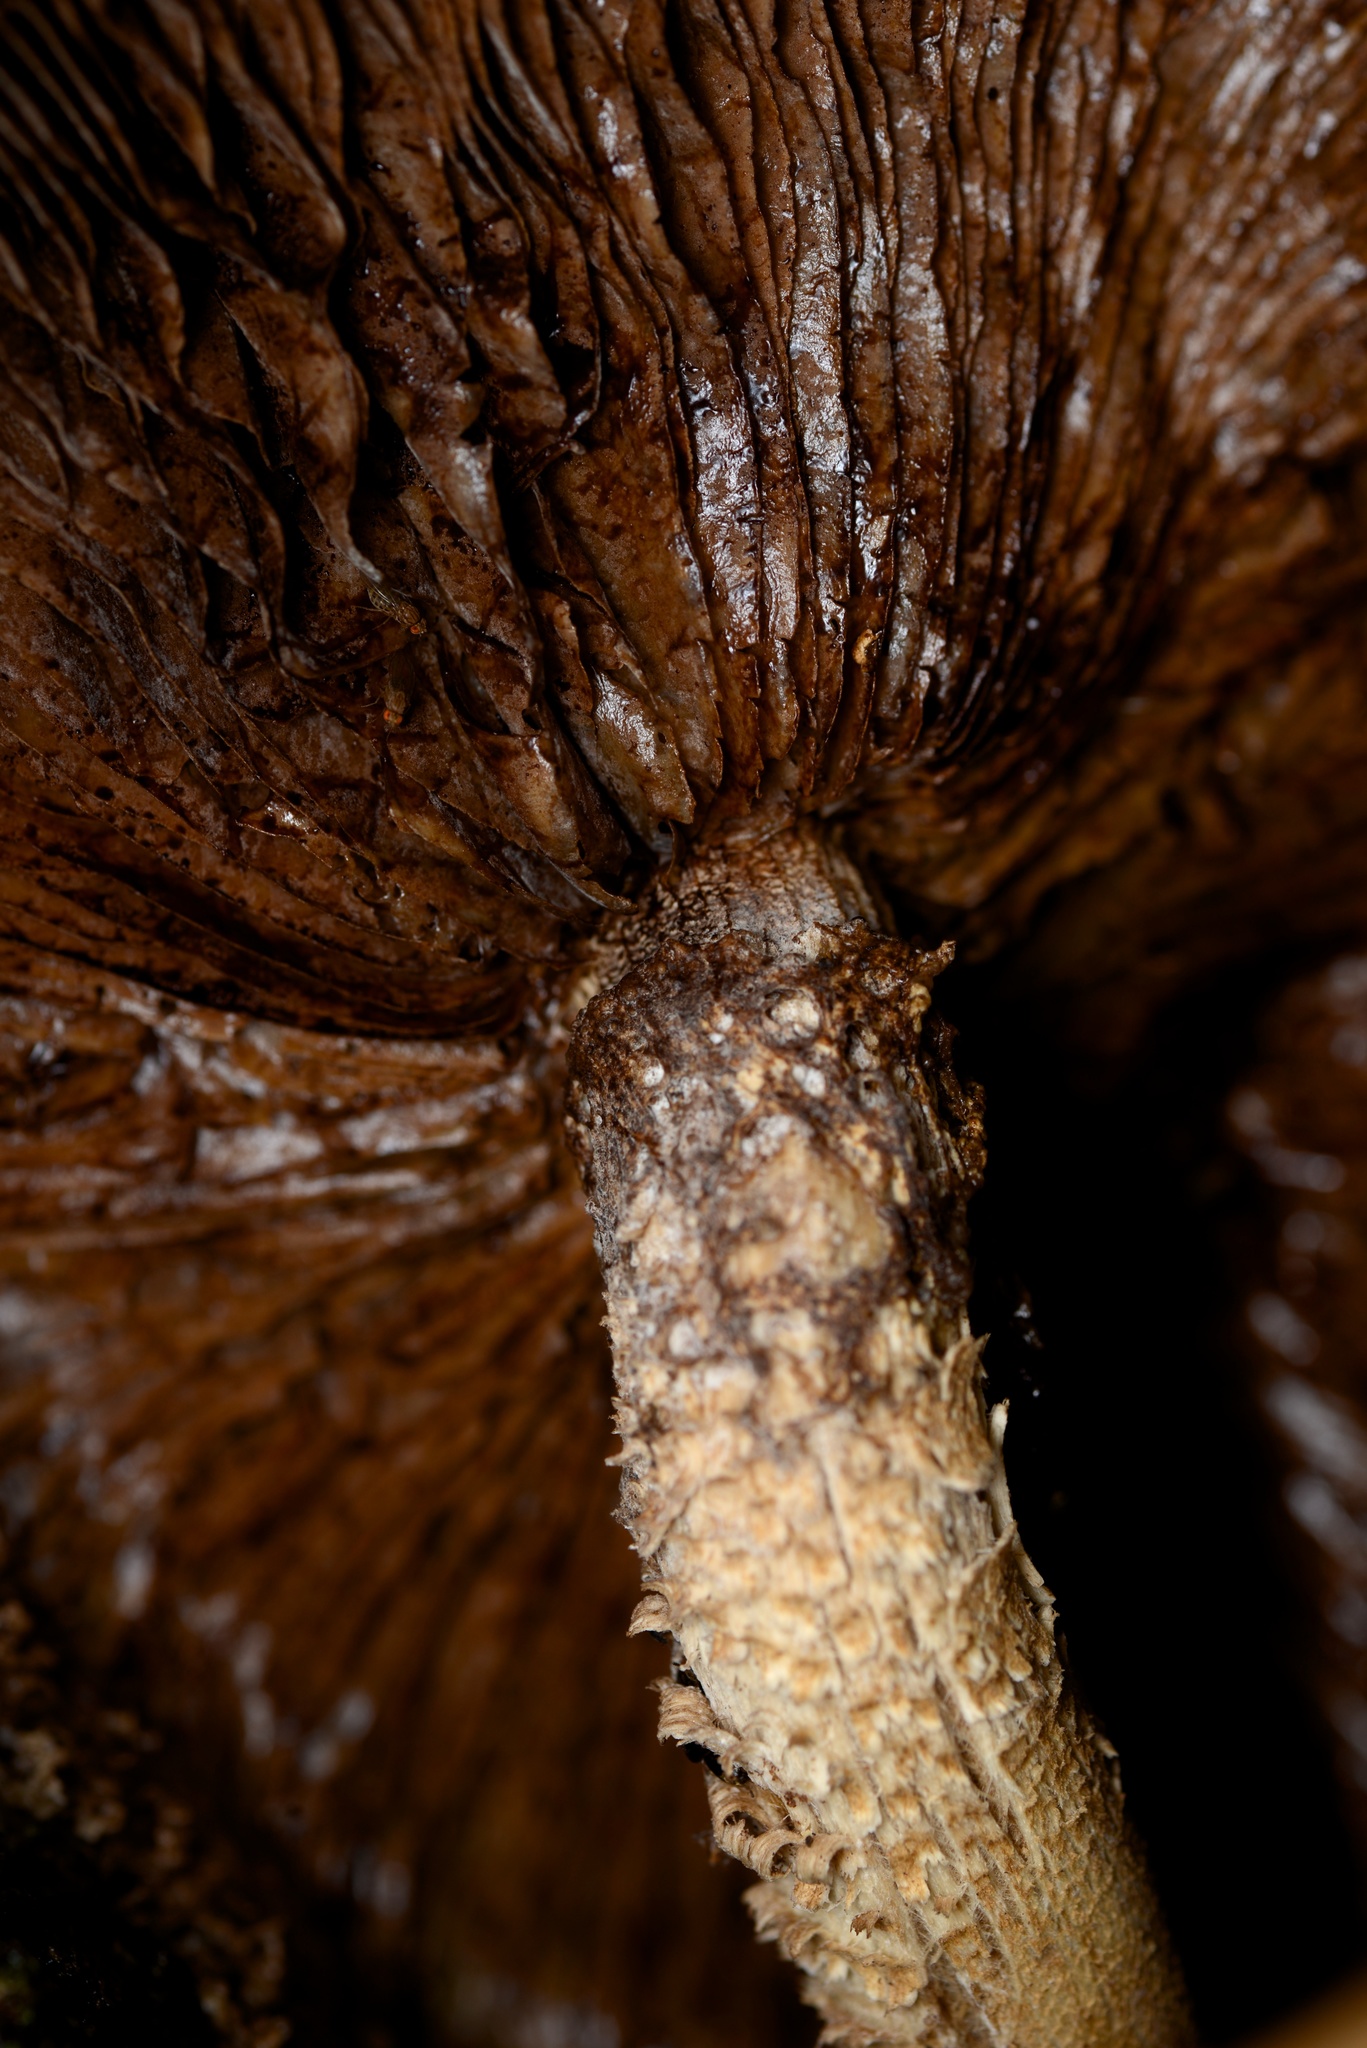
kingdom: Fungi
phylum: Basidiomycota
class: Agaricomycetes
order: Agaricales
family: Tubariaceae
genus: Cyclocybe
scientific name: Cyclocybe parasitica
